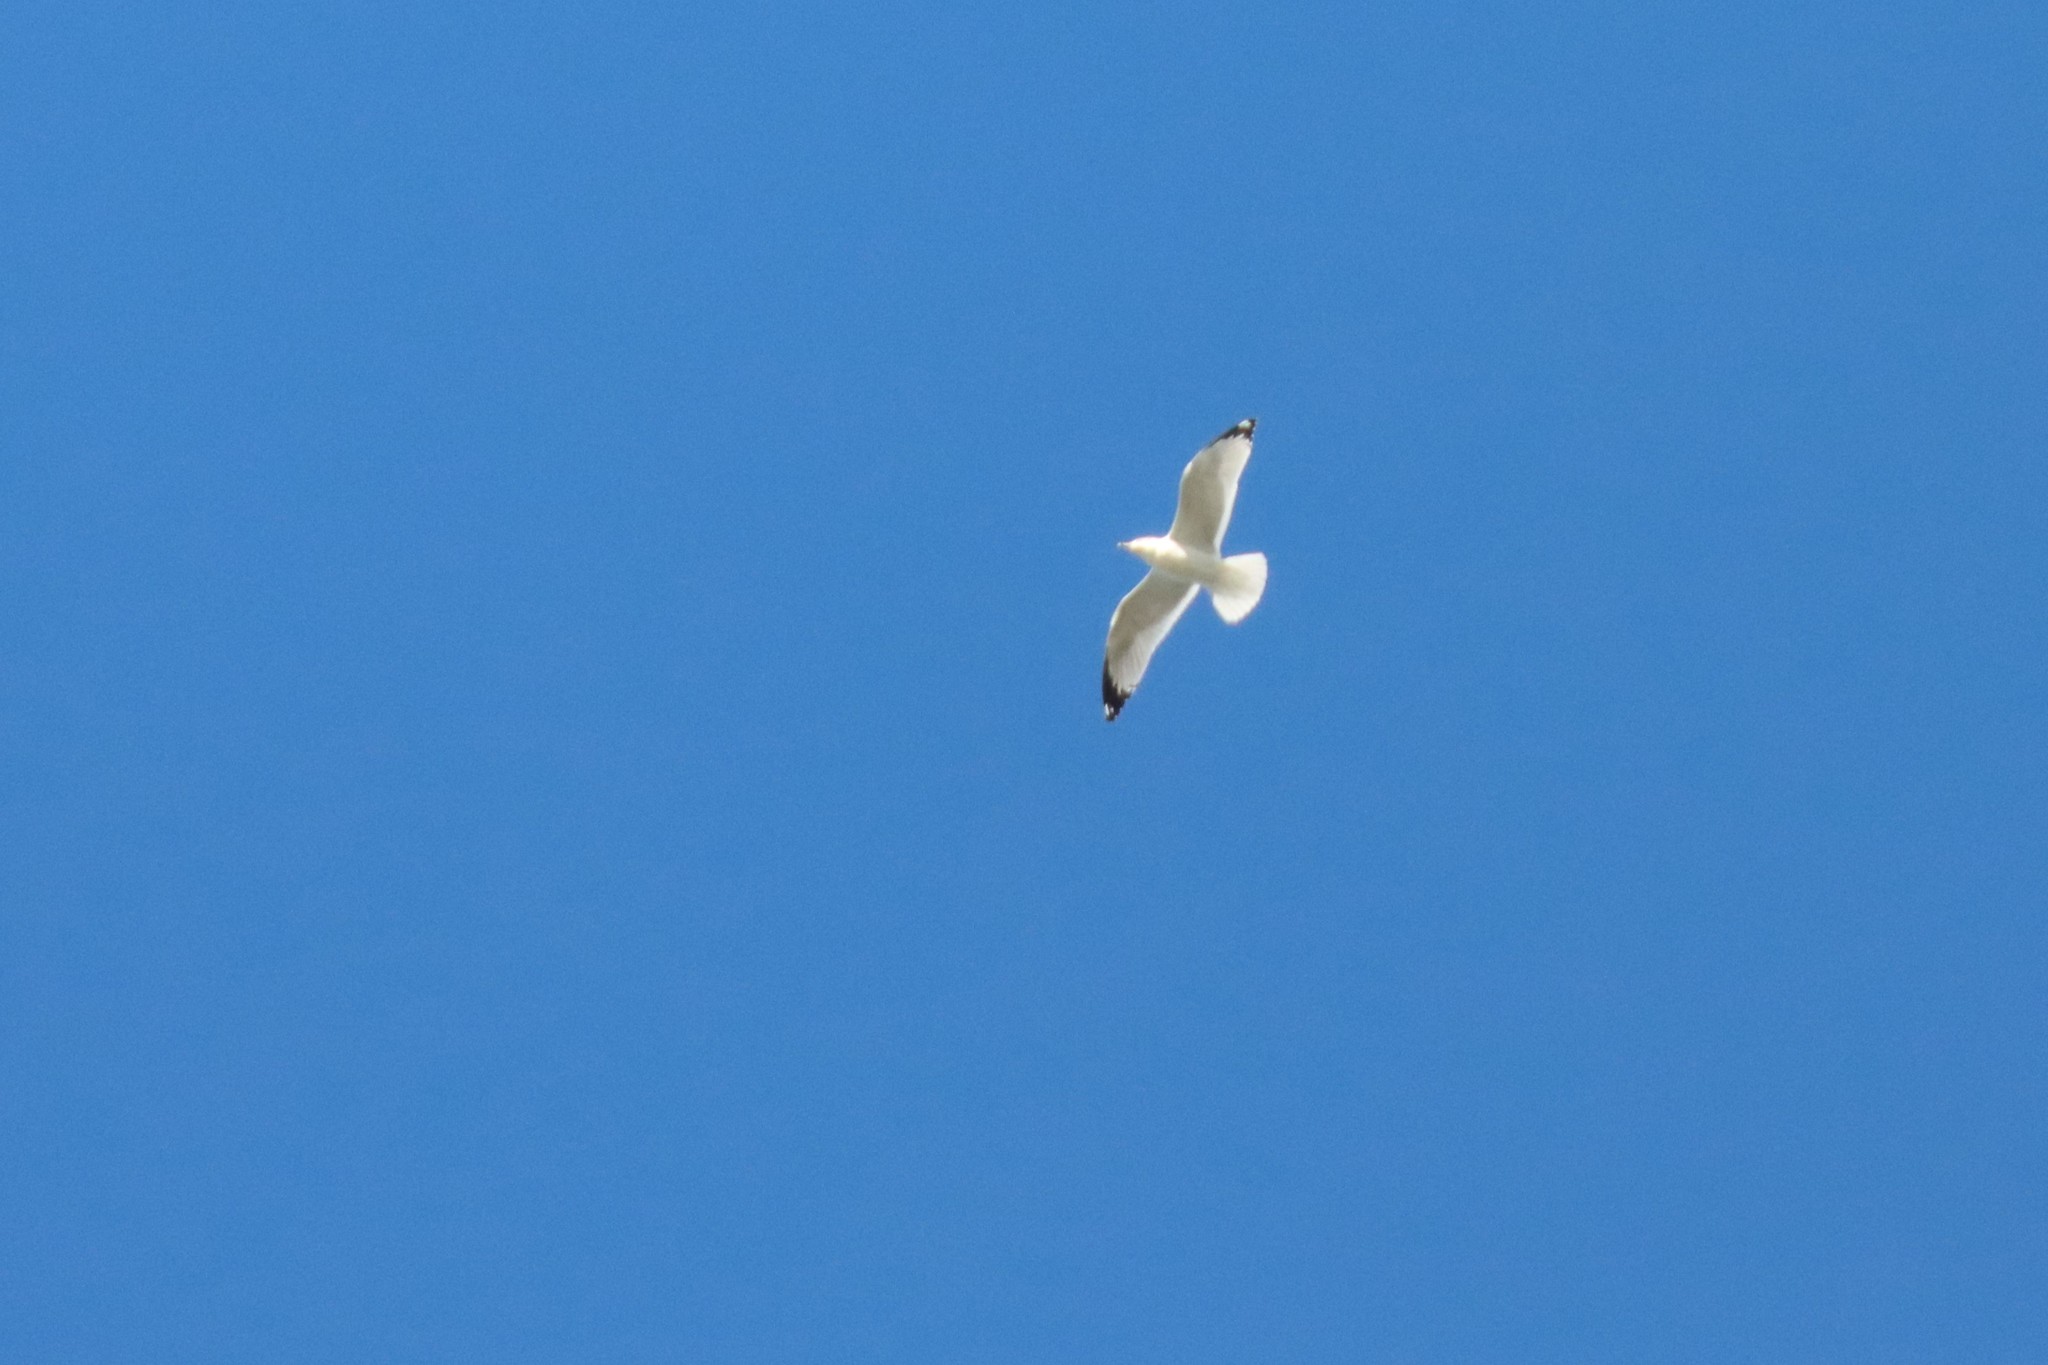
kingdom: Animalia
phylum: Chordata
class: Aves
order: Charadriiformes
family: Laridae
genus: Larus
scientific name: Larus delawarensis
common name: Ring-billed gull
